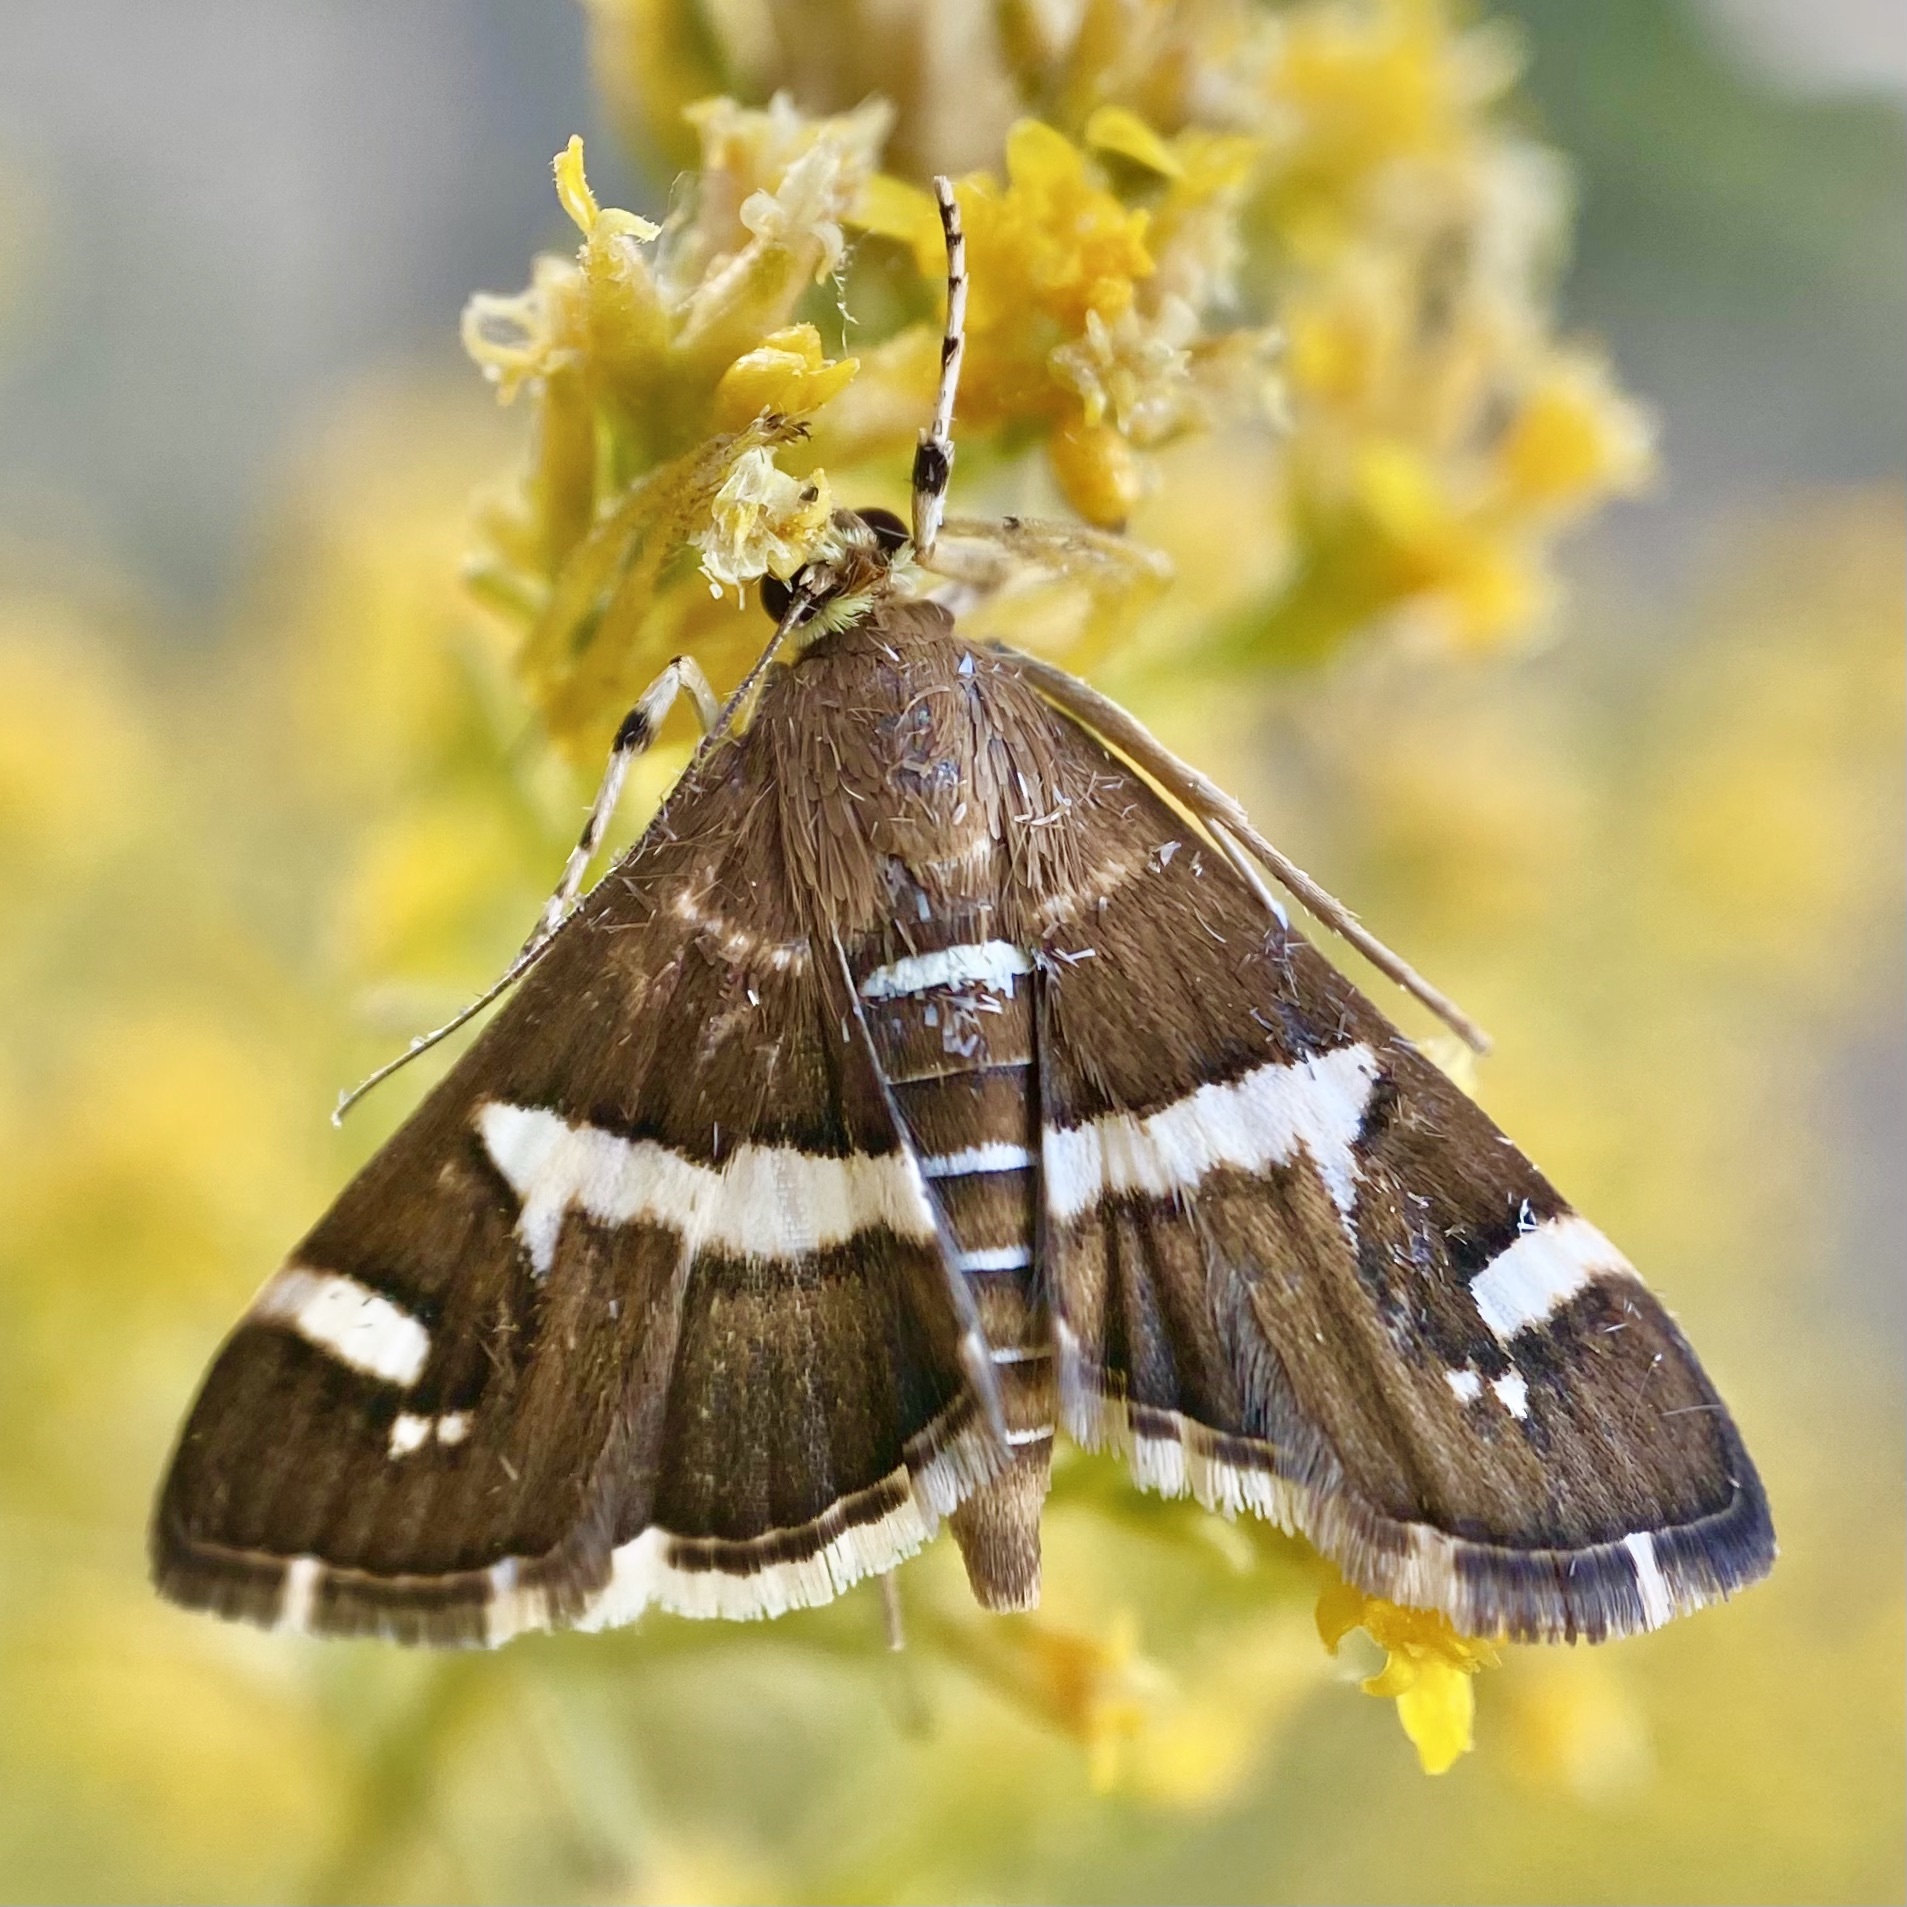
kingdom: Animalia
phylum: Arthropoda
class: Insecta
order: Lepidoptera
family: Crambidae
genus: Spoladea
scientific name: Spoladea recurvalis
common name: Beet webworm moth
